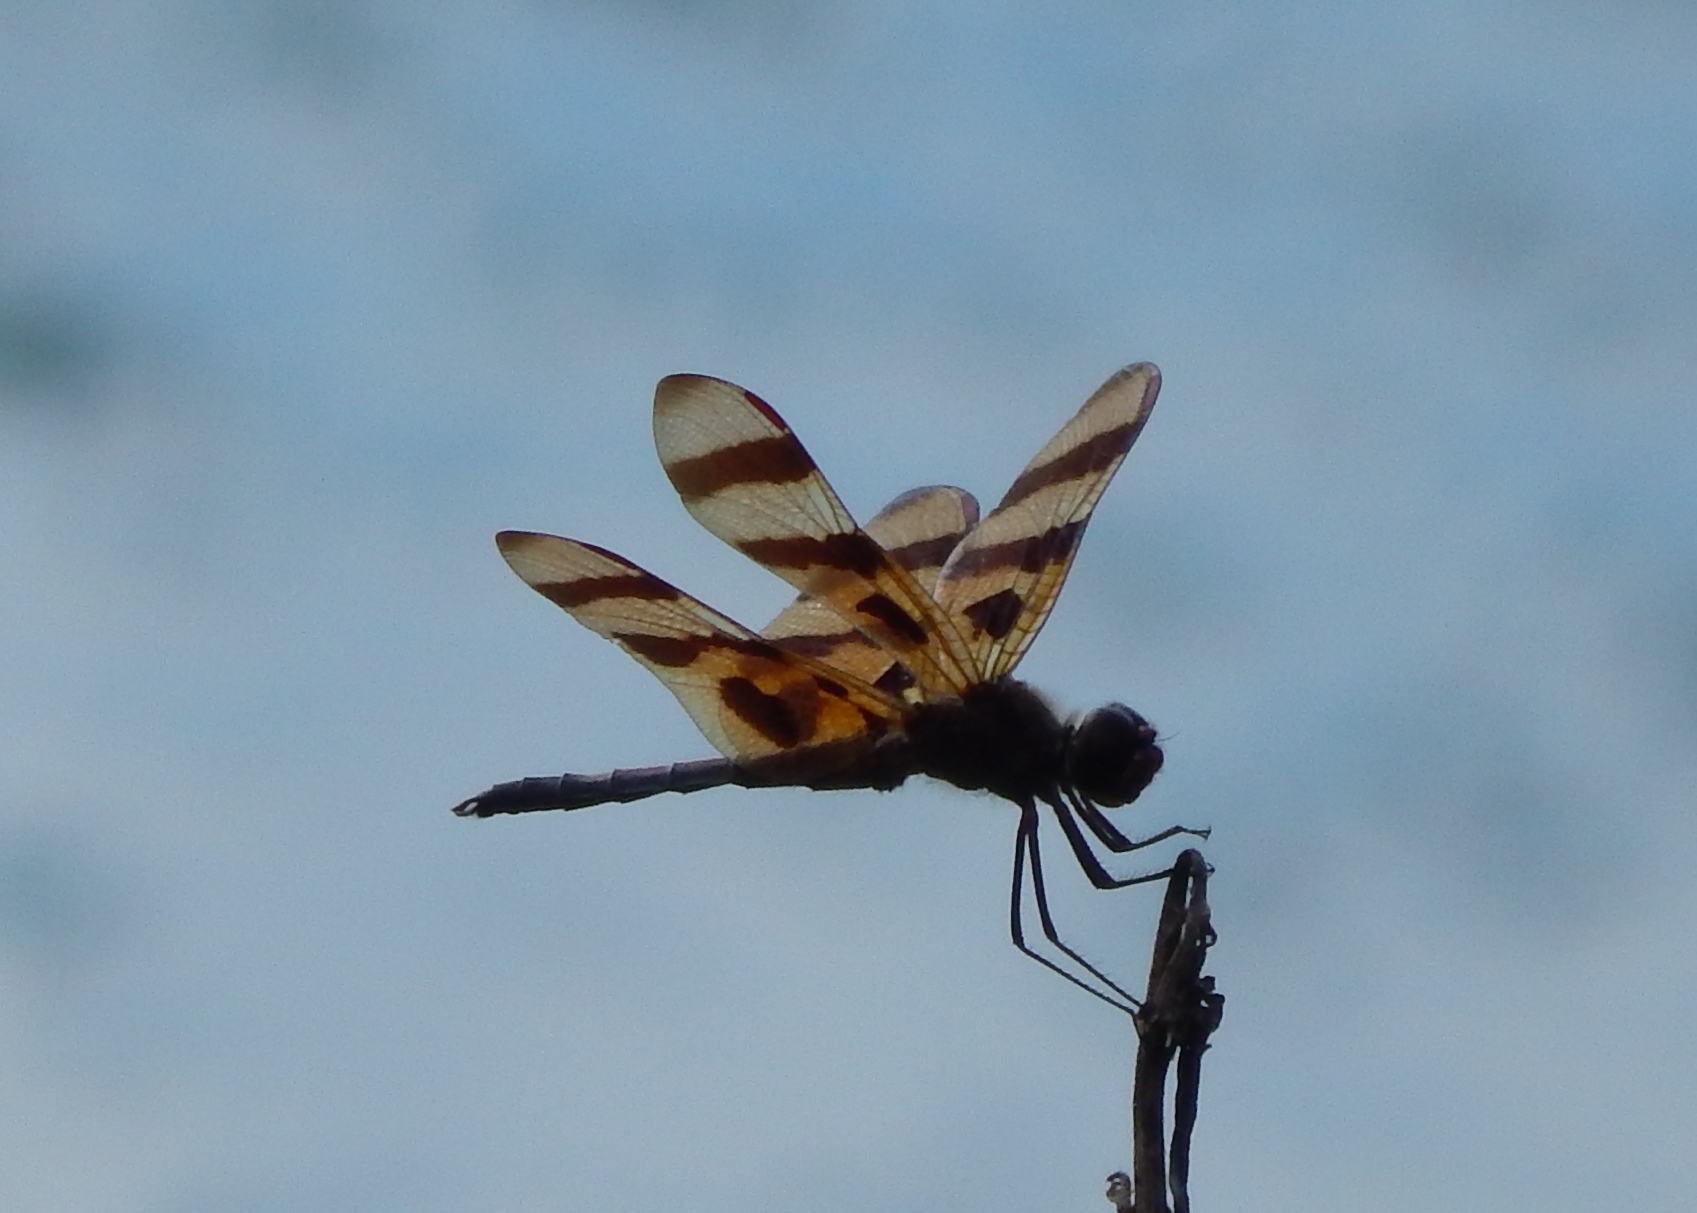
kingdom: Animalia
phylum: Arthropoda
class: Insecta
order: Odonata
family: Libellulidae
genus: Celithemis
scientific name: Celithemis eponina
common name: Halloween pennant
